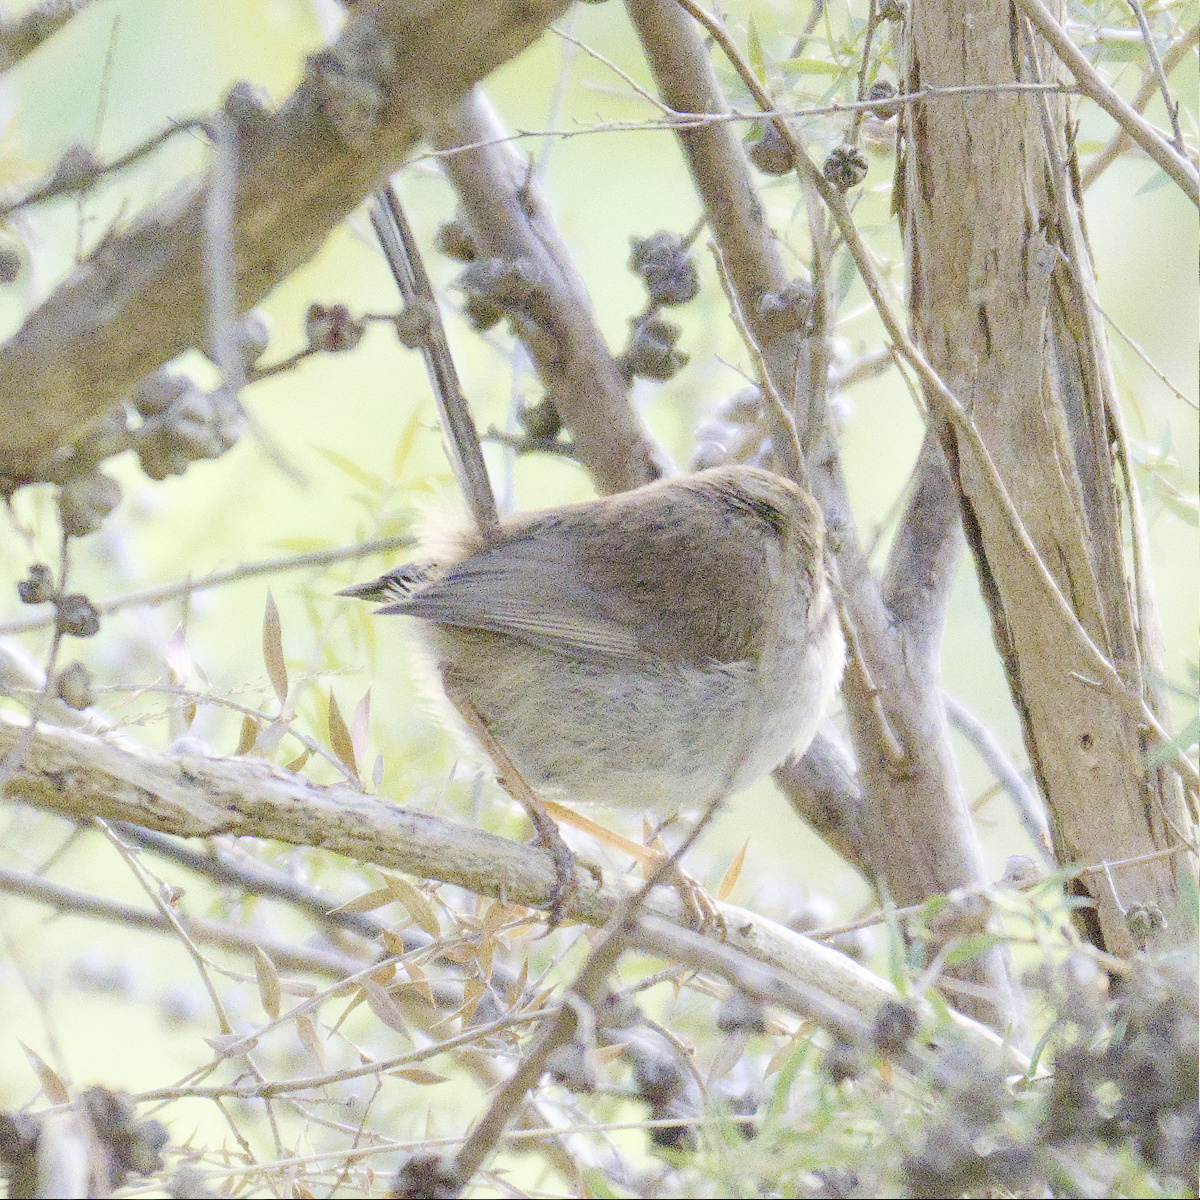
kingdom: Animalia
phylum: Chordata
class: Aves
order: Passeriformes
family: Maluridae
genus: Malurus
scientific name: Malurus cyaneus
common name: Superb fairywren
